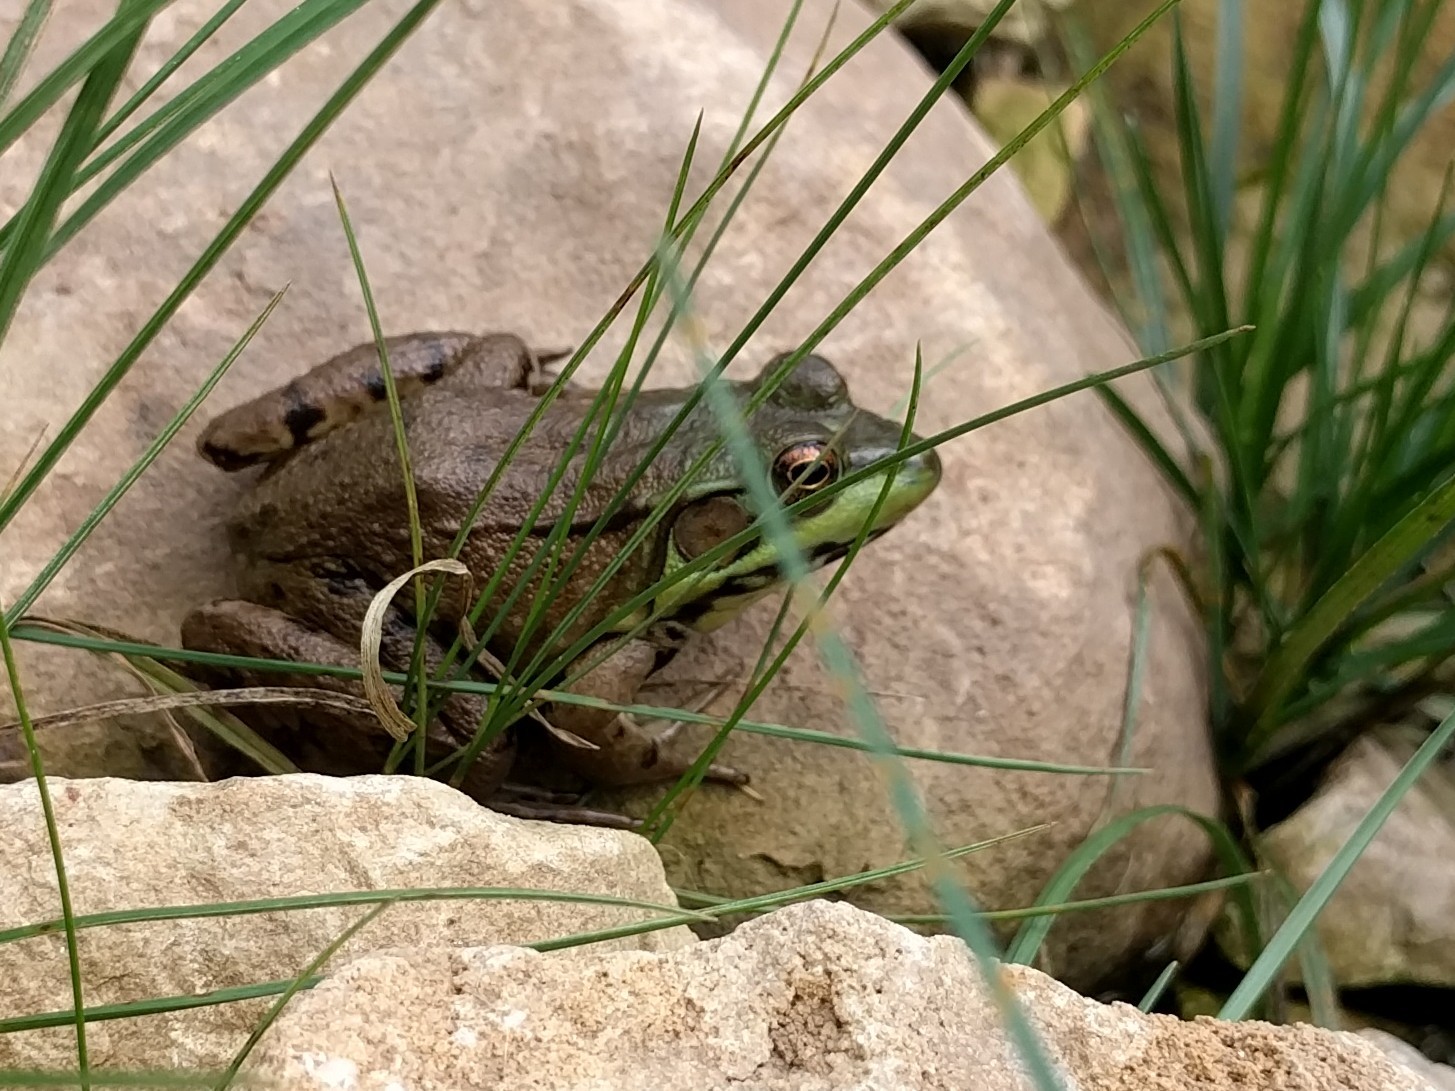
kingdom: Animalia
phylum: Chordata
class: Amphibia
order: Anura
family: Ranidae
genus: Lithobates
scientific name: Lithobates clamitans
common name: Green frog
